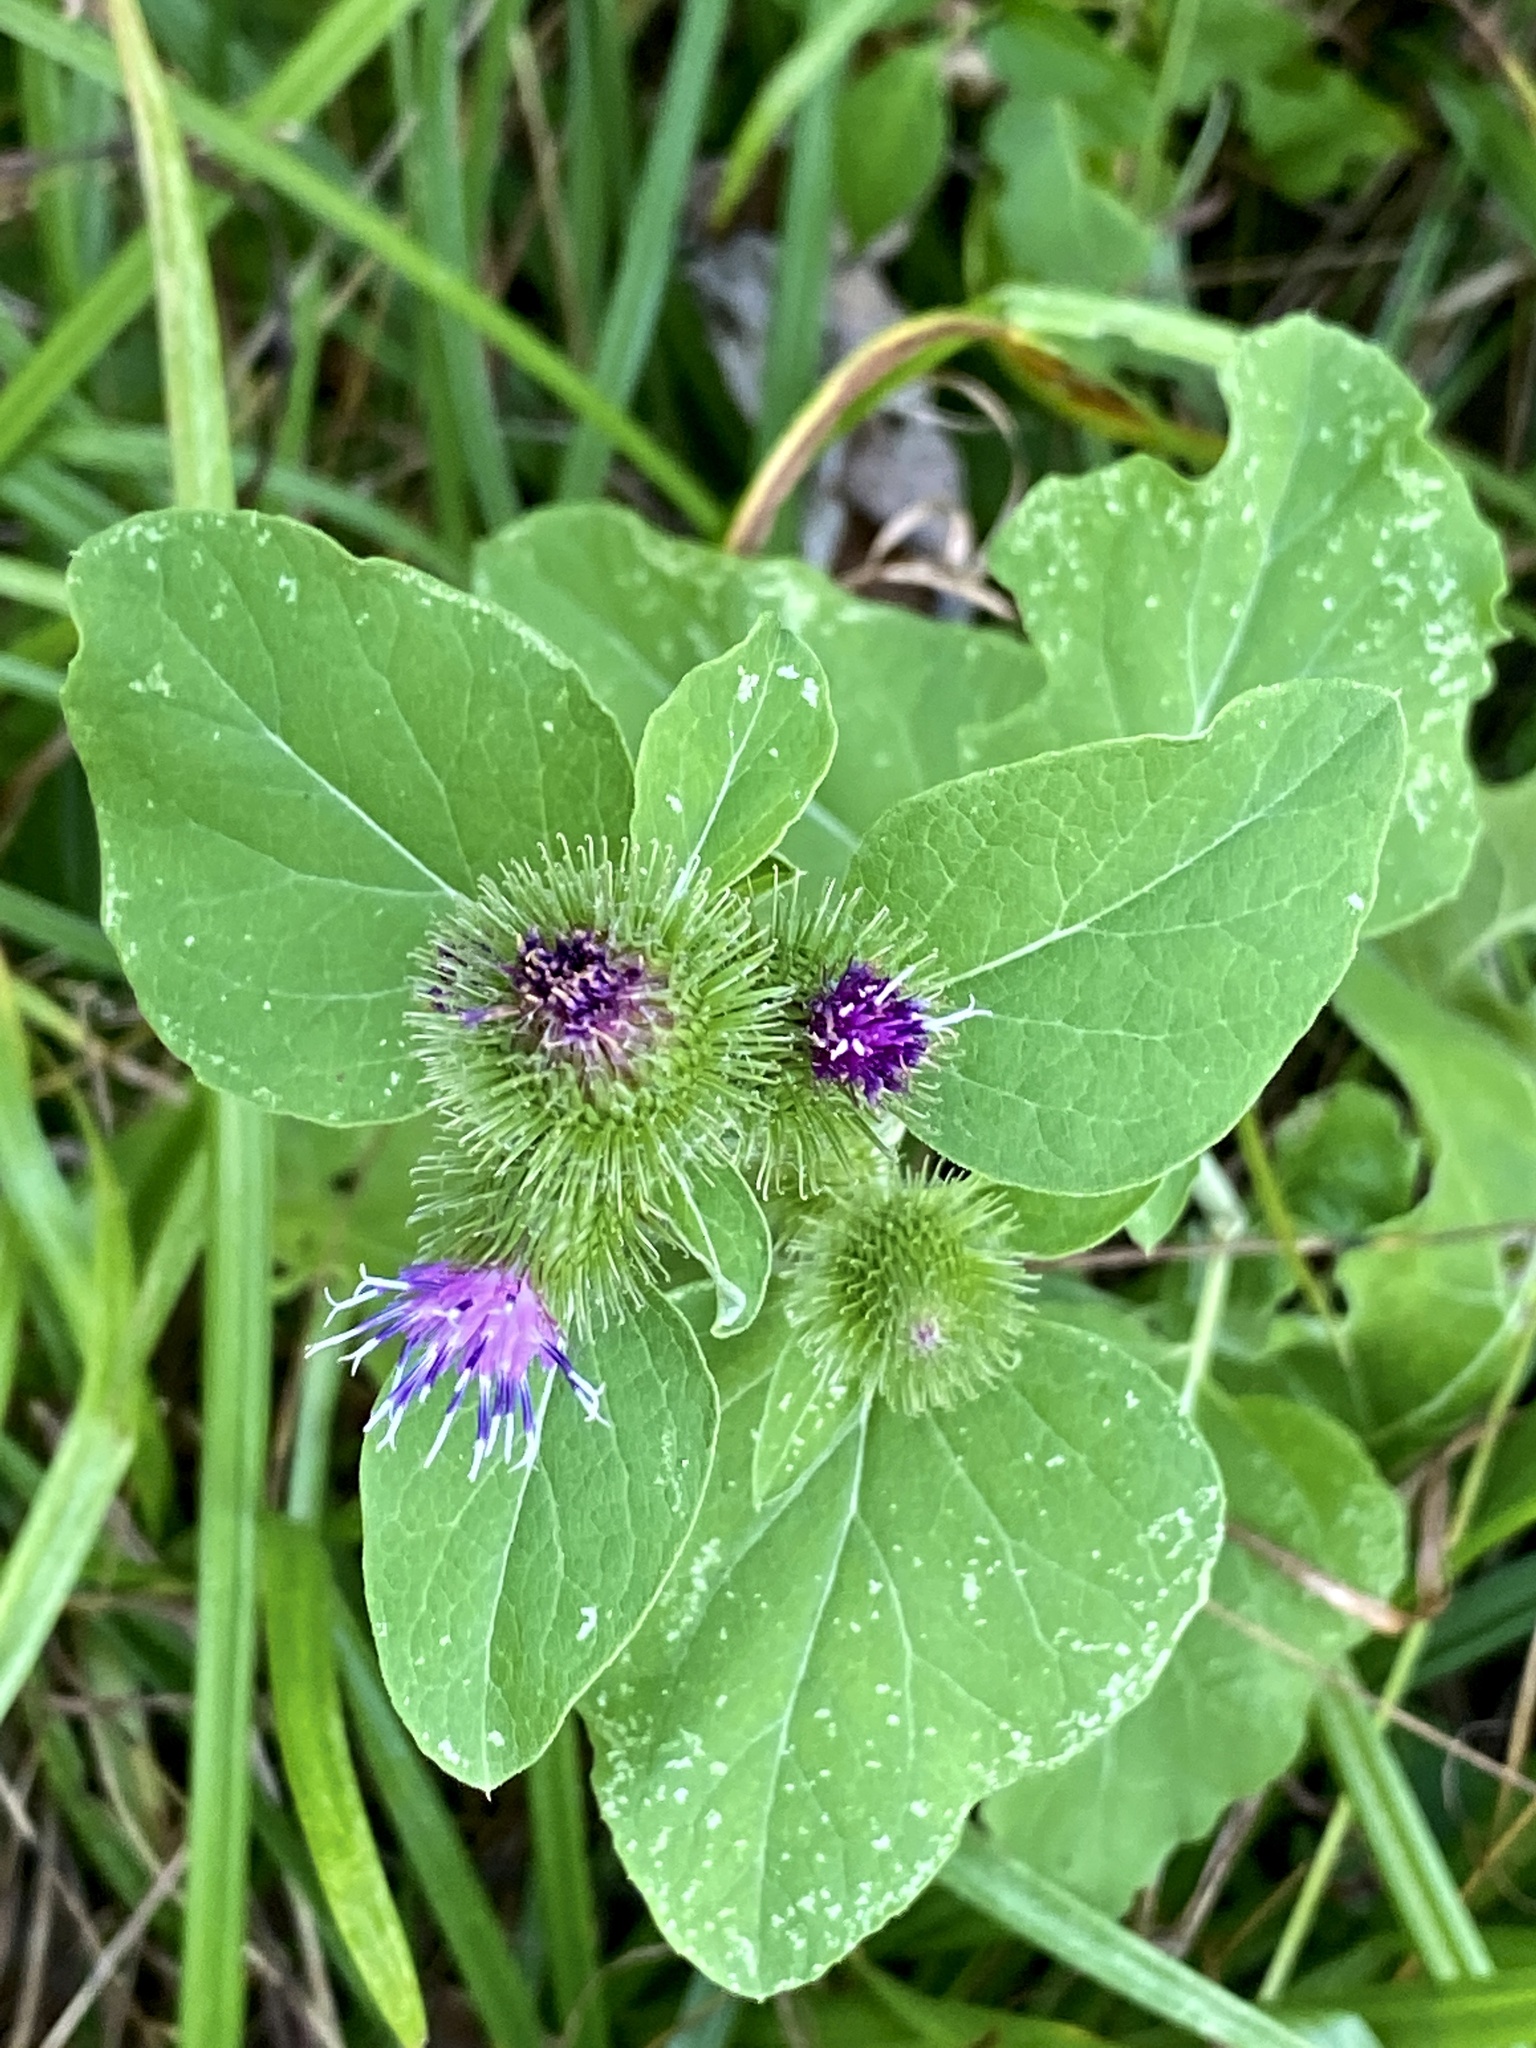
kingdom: Plantae
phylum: Tracheophyta
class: Magnoliopsida
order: Asterales
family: Asteraceae
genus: Arctium
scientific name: Arctium minus
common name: Lesser burdock
